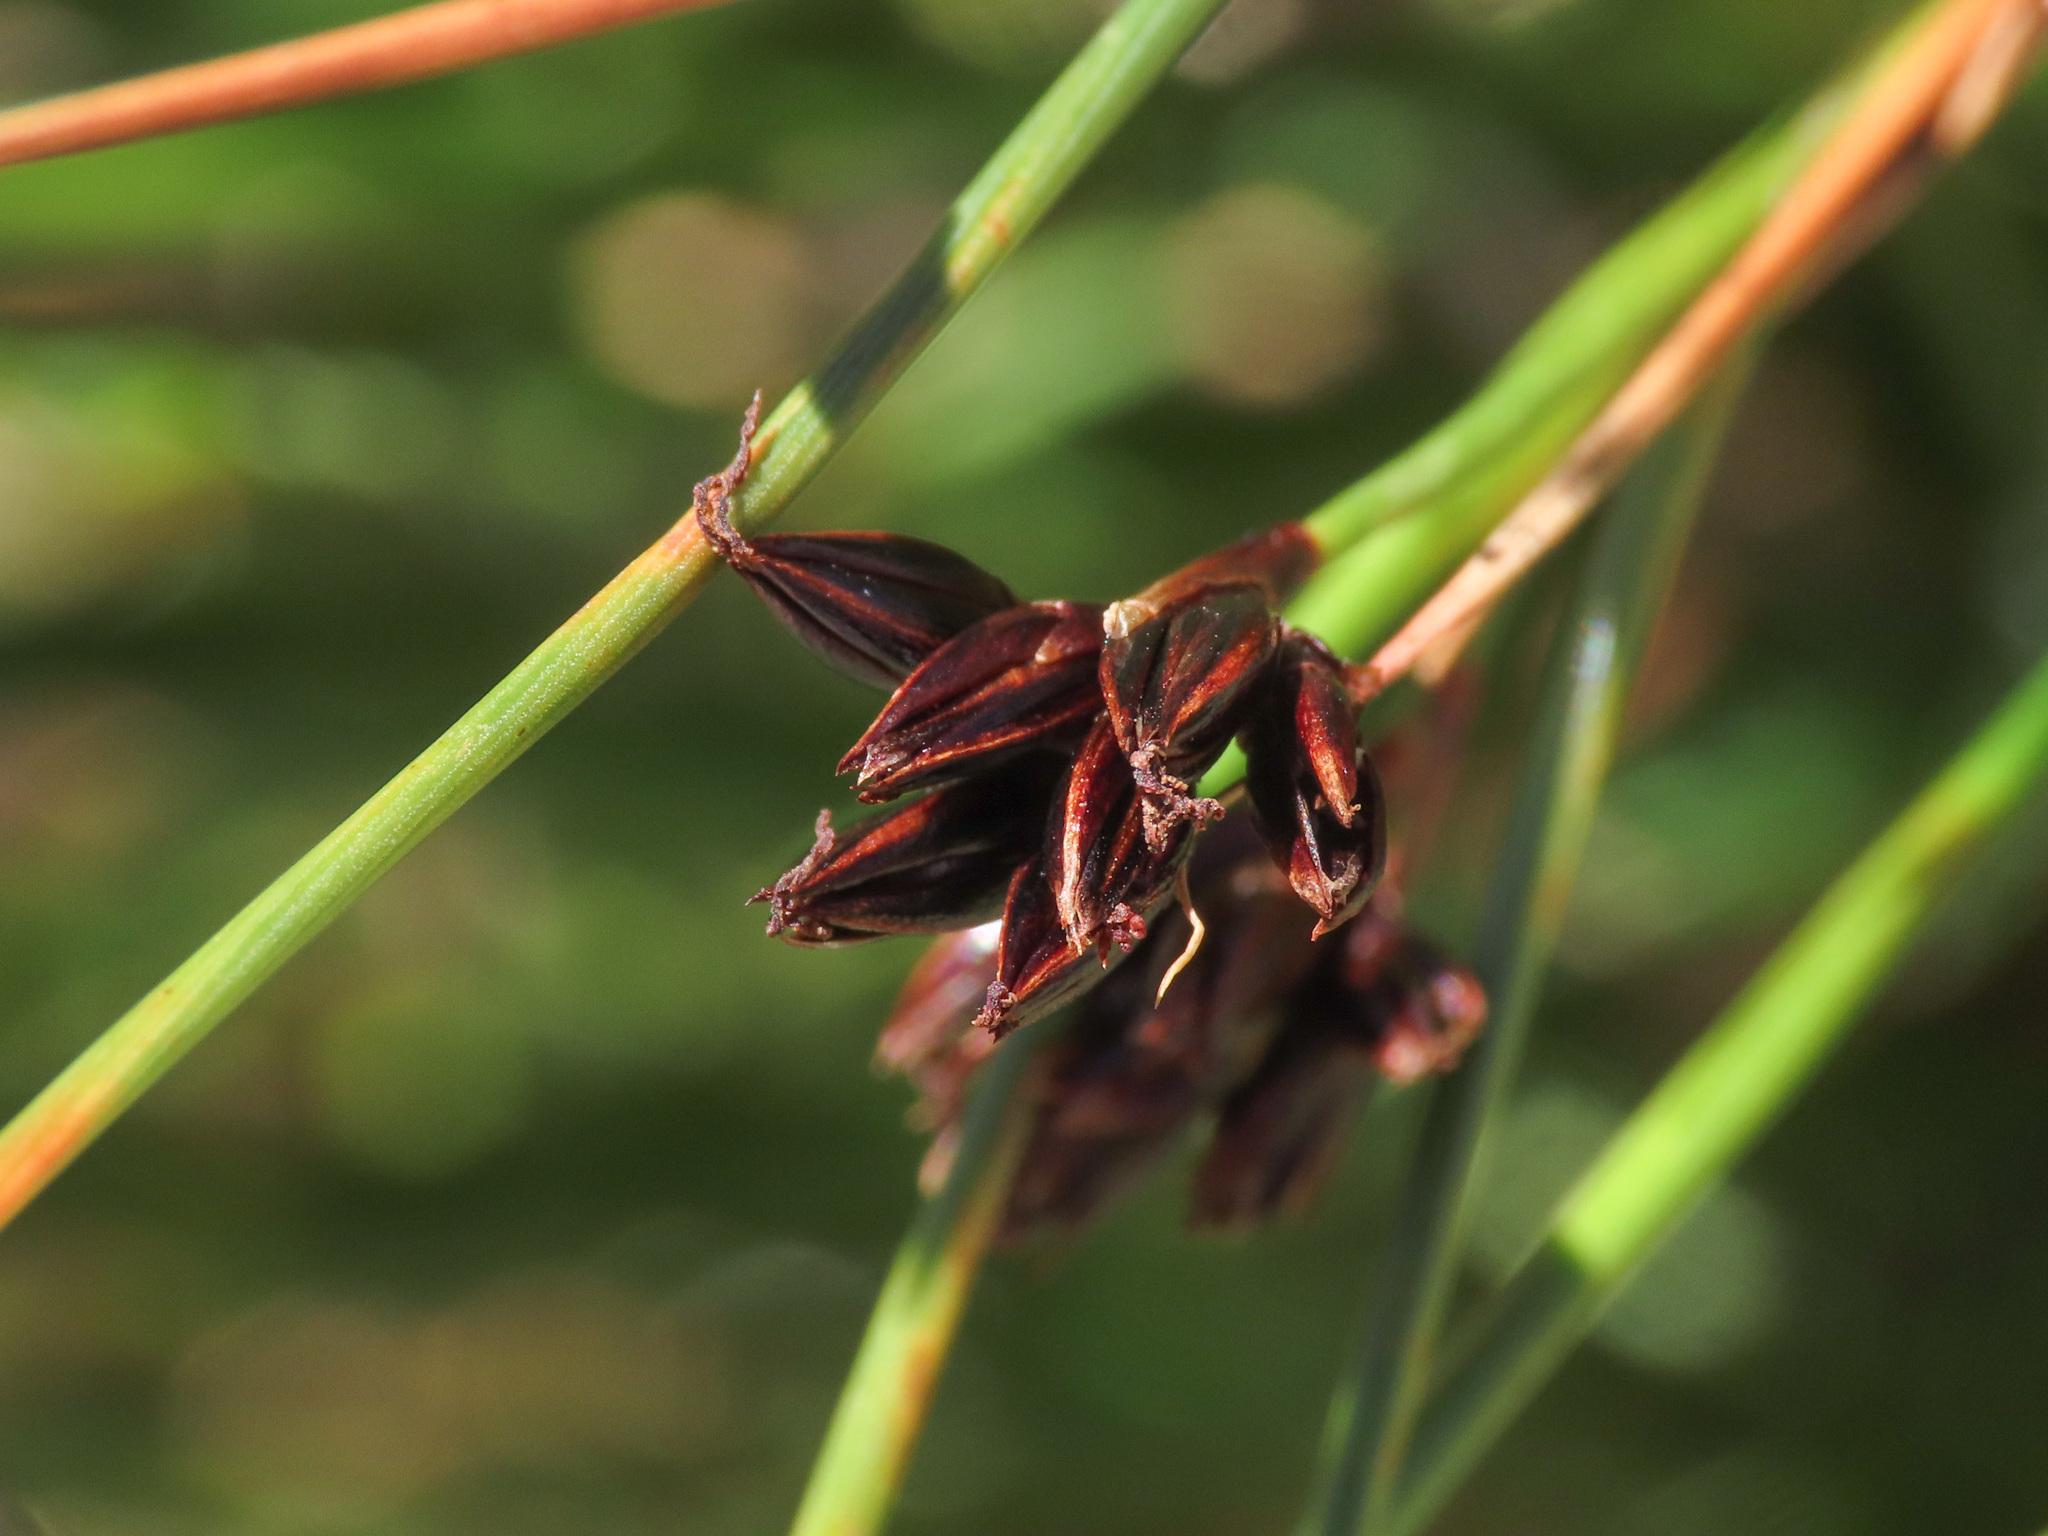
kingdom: Plantae
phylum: Tracheophyta
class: Liliopsida
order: Poales
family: Juncaceae
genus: Juncus
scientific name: Juncus jacquinii
